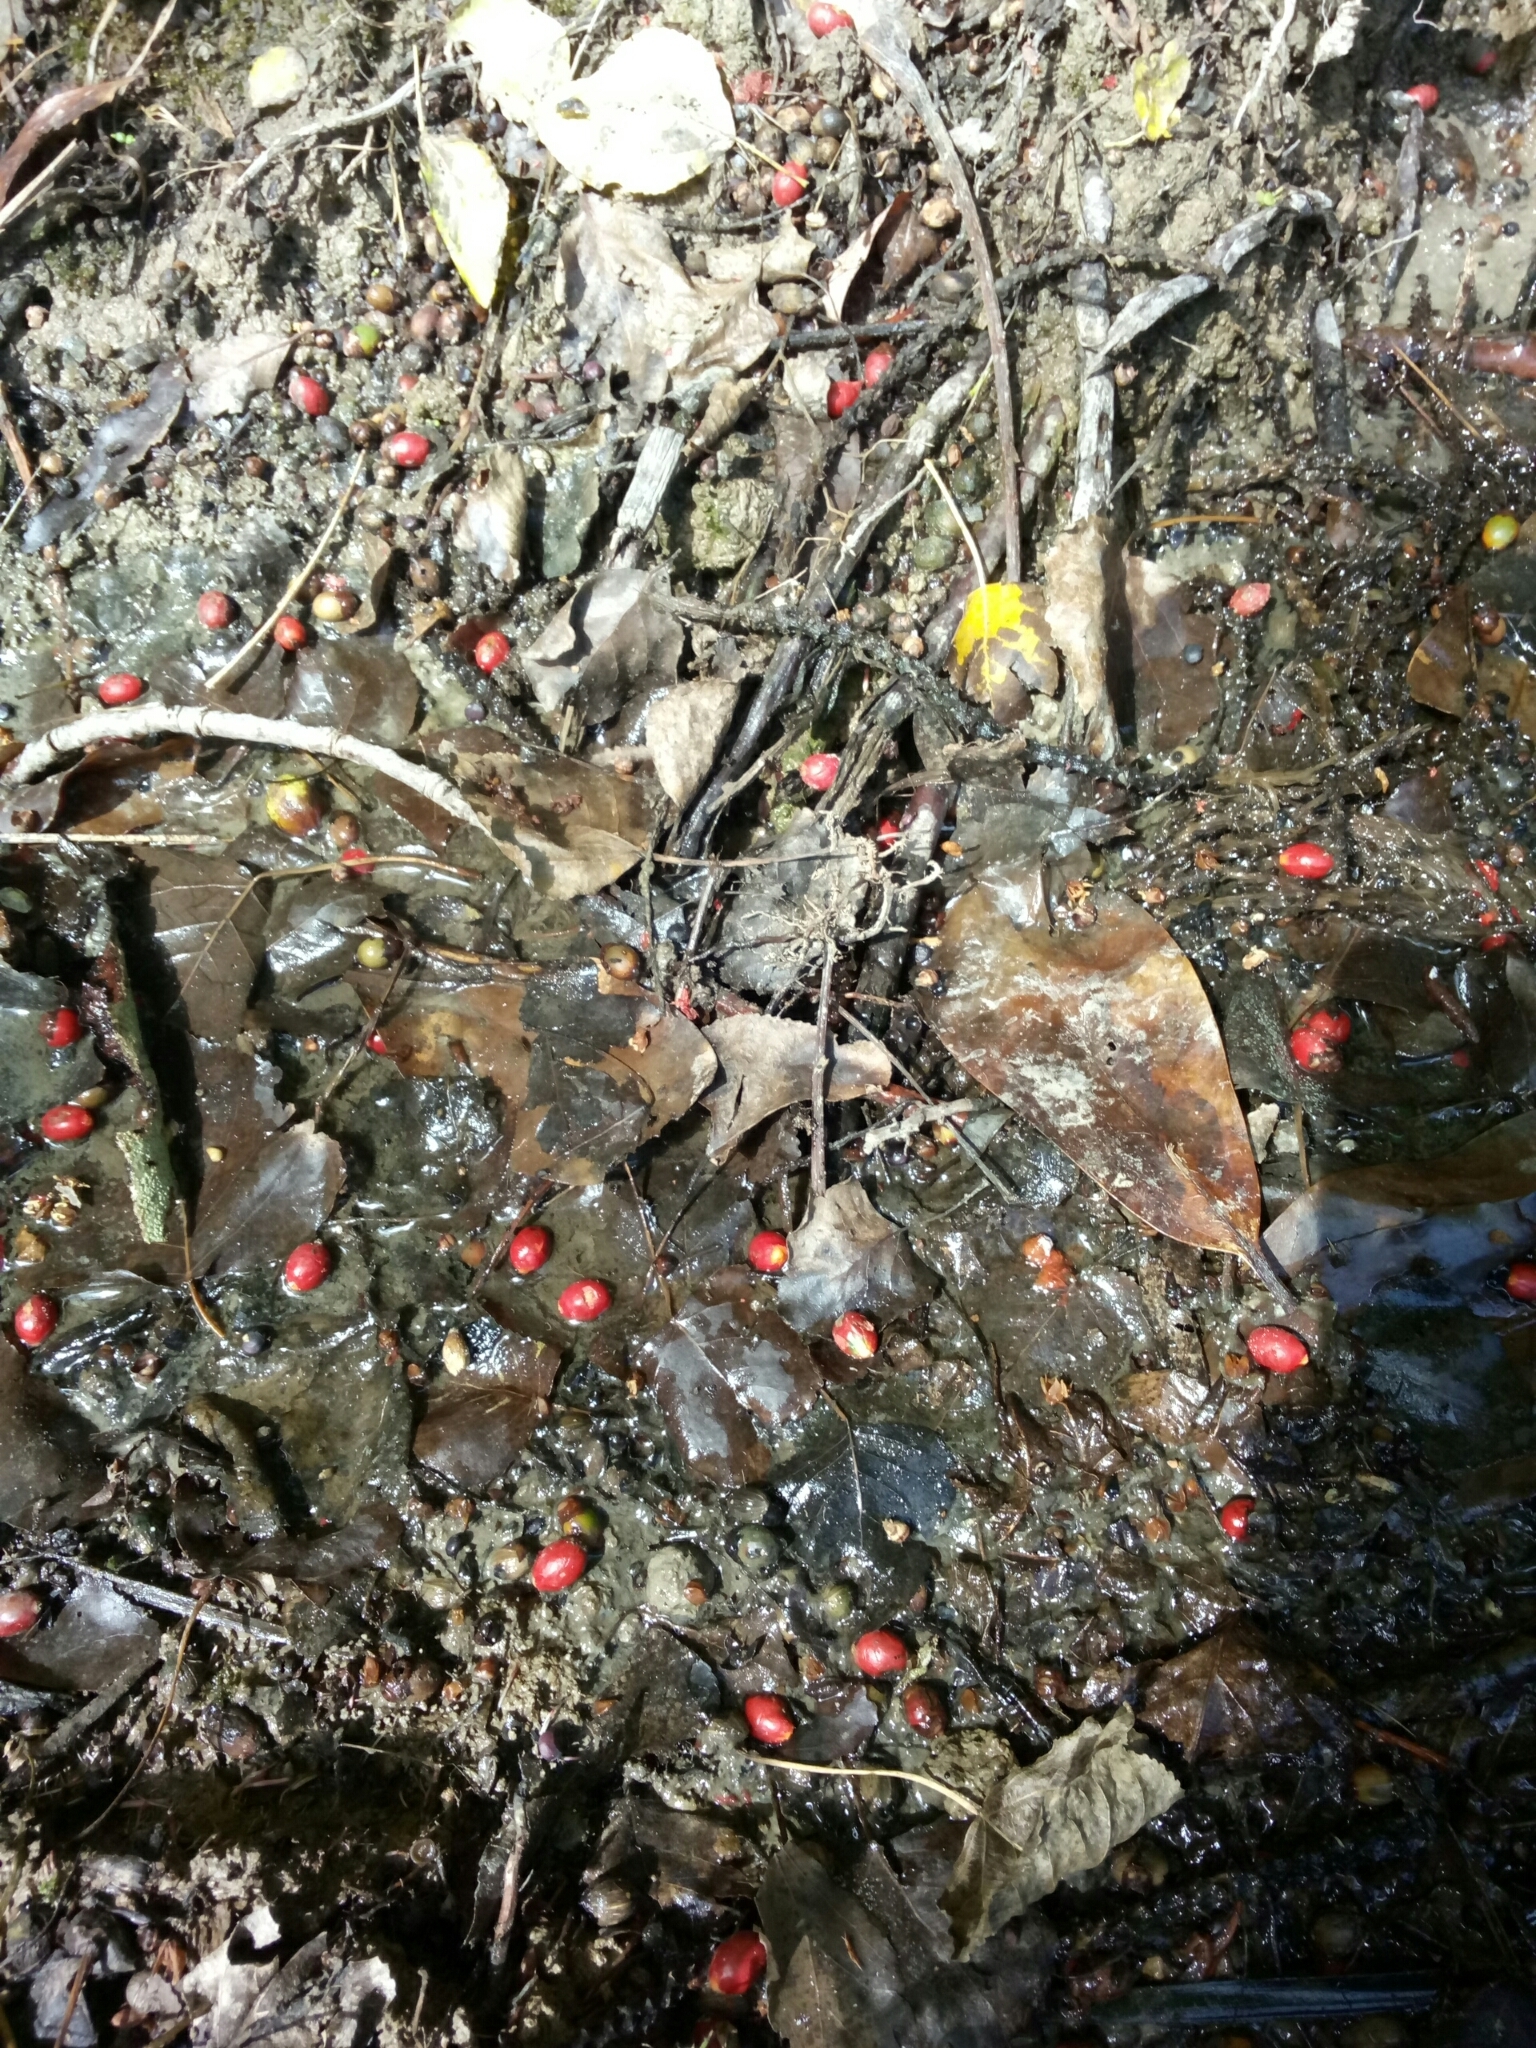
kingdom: Plantae
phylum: Tracheophyta
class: Liliopsida
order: Arecales
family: Arecaceae
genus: Rhopalostylis
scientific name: Rhopalostylis sapida
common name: Feather-duster palm
